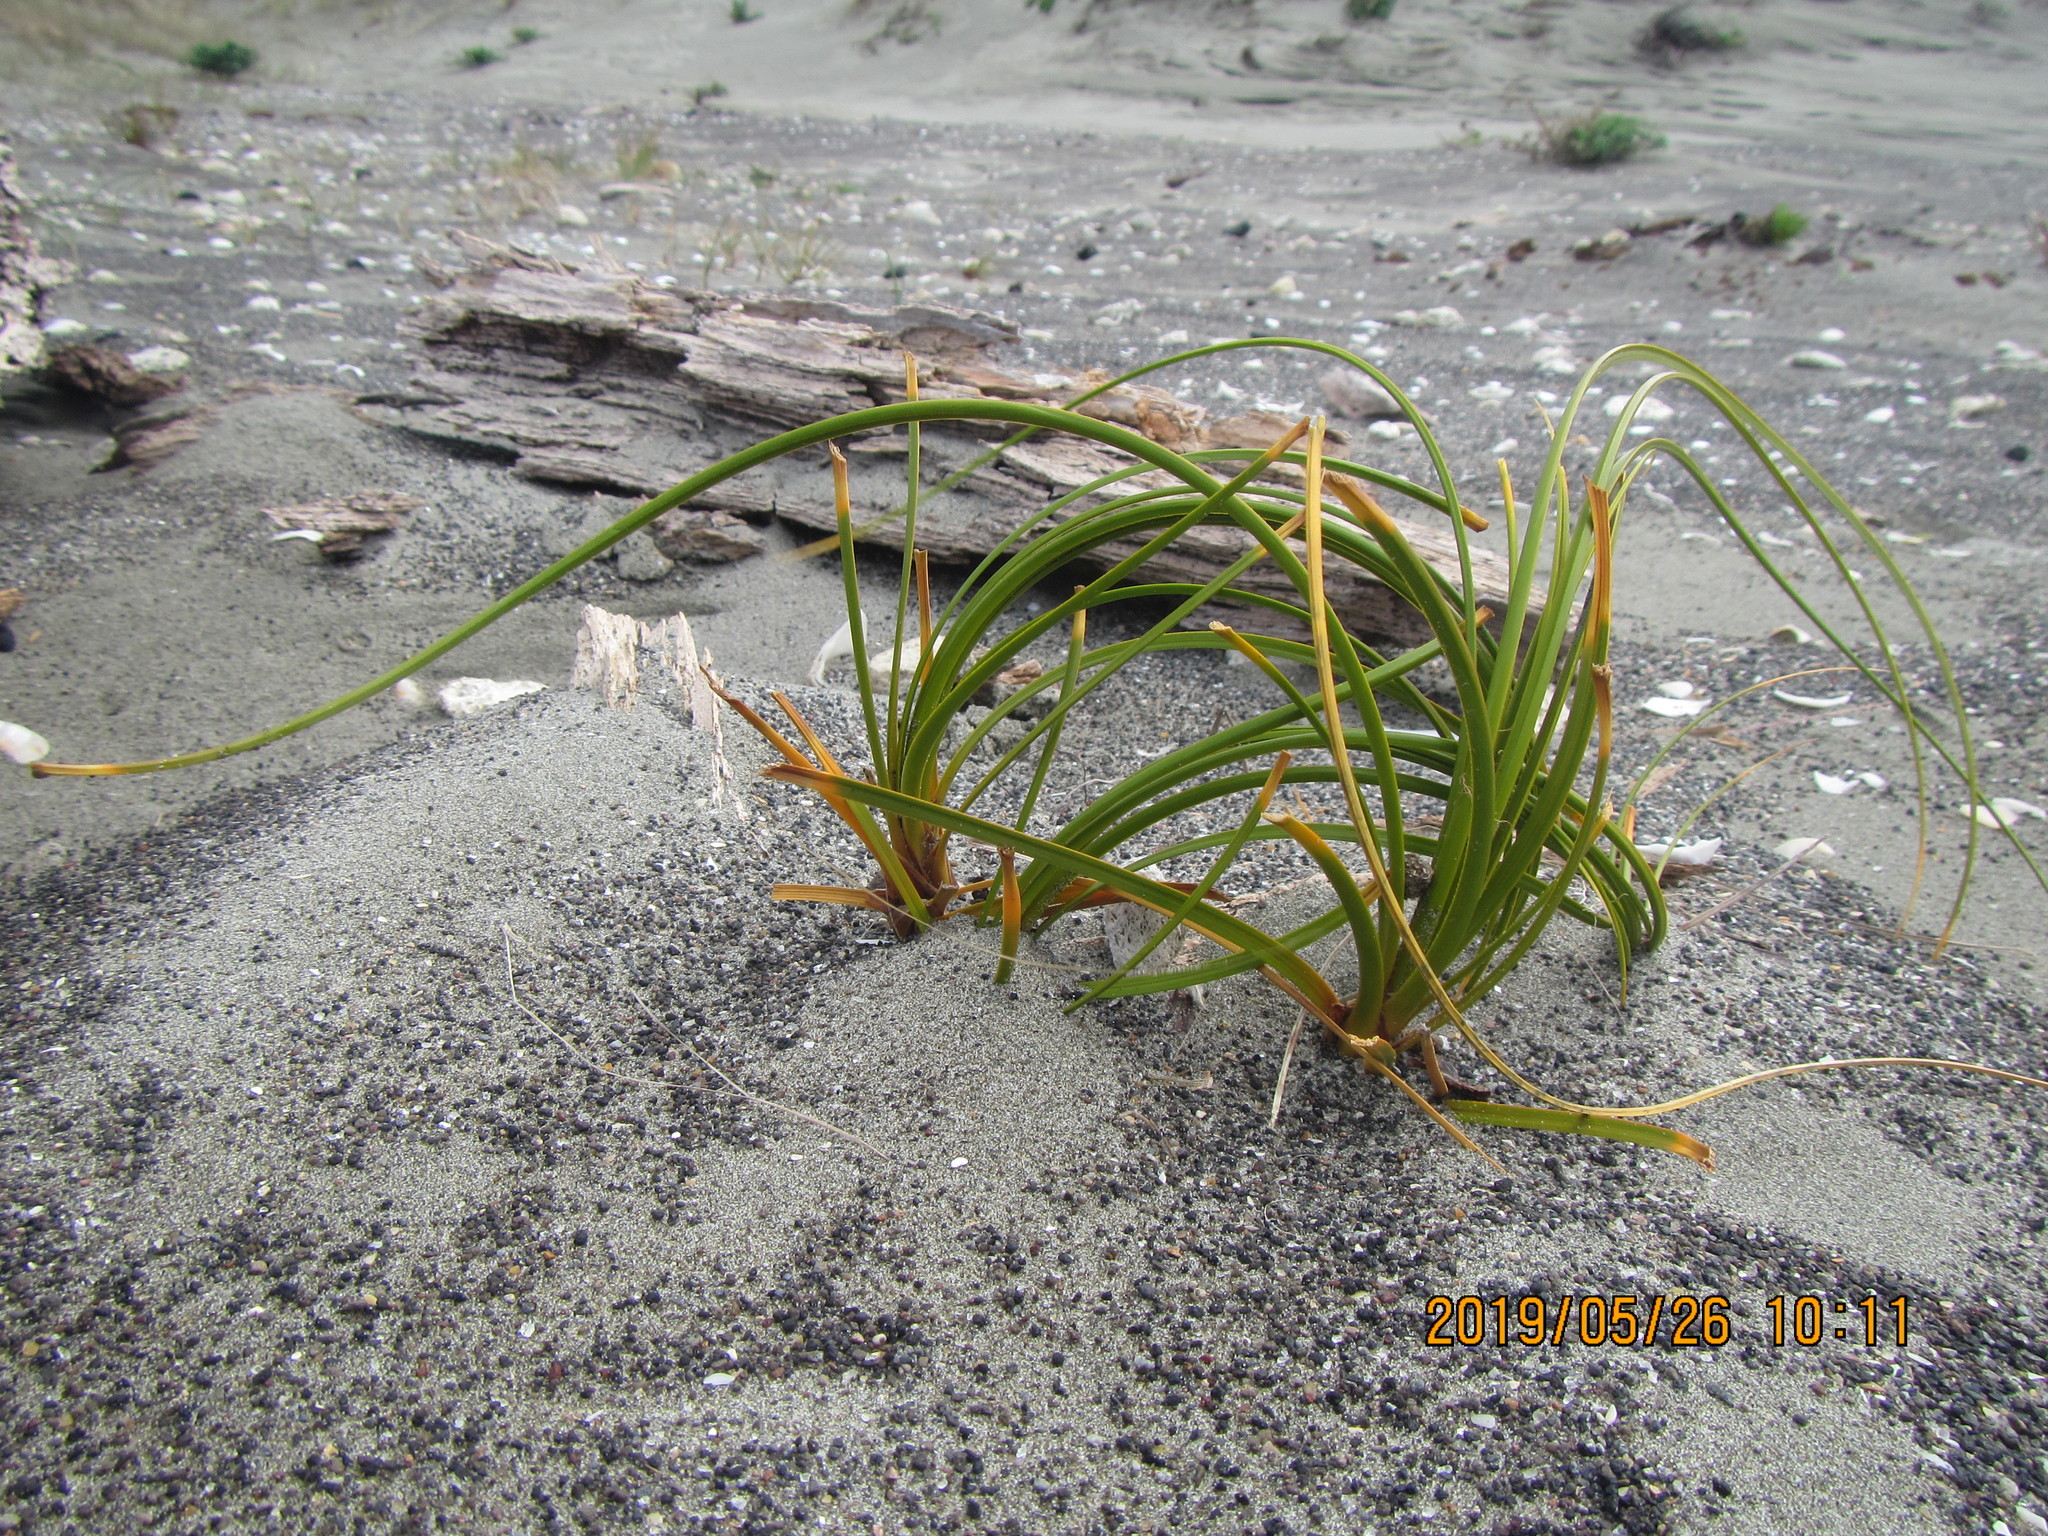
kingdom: Plantae
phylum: Tracheophyta
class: Liliopsida
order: Poales
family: Cyperaceae
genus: Ficinia
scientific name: Ficinia spiralis
